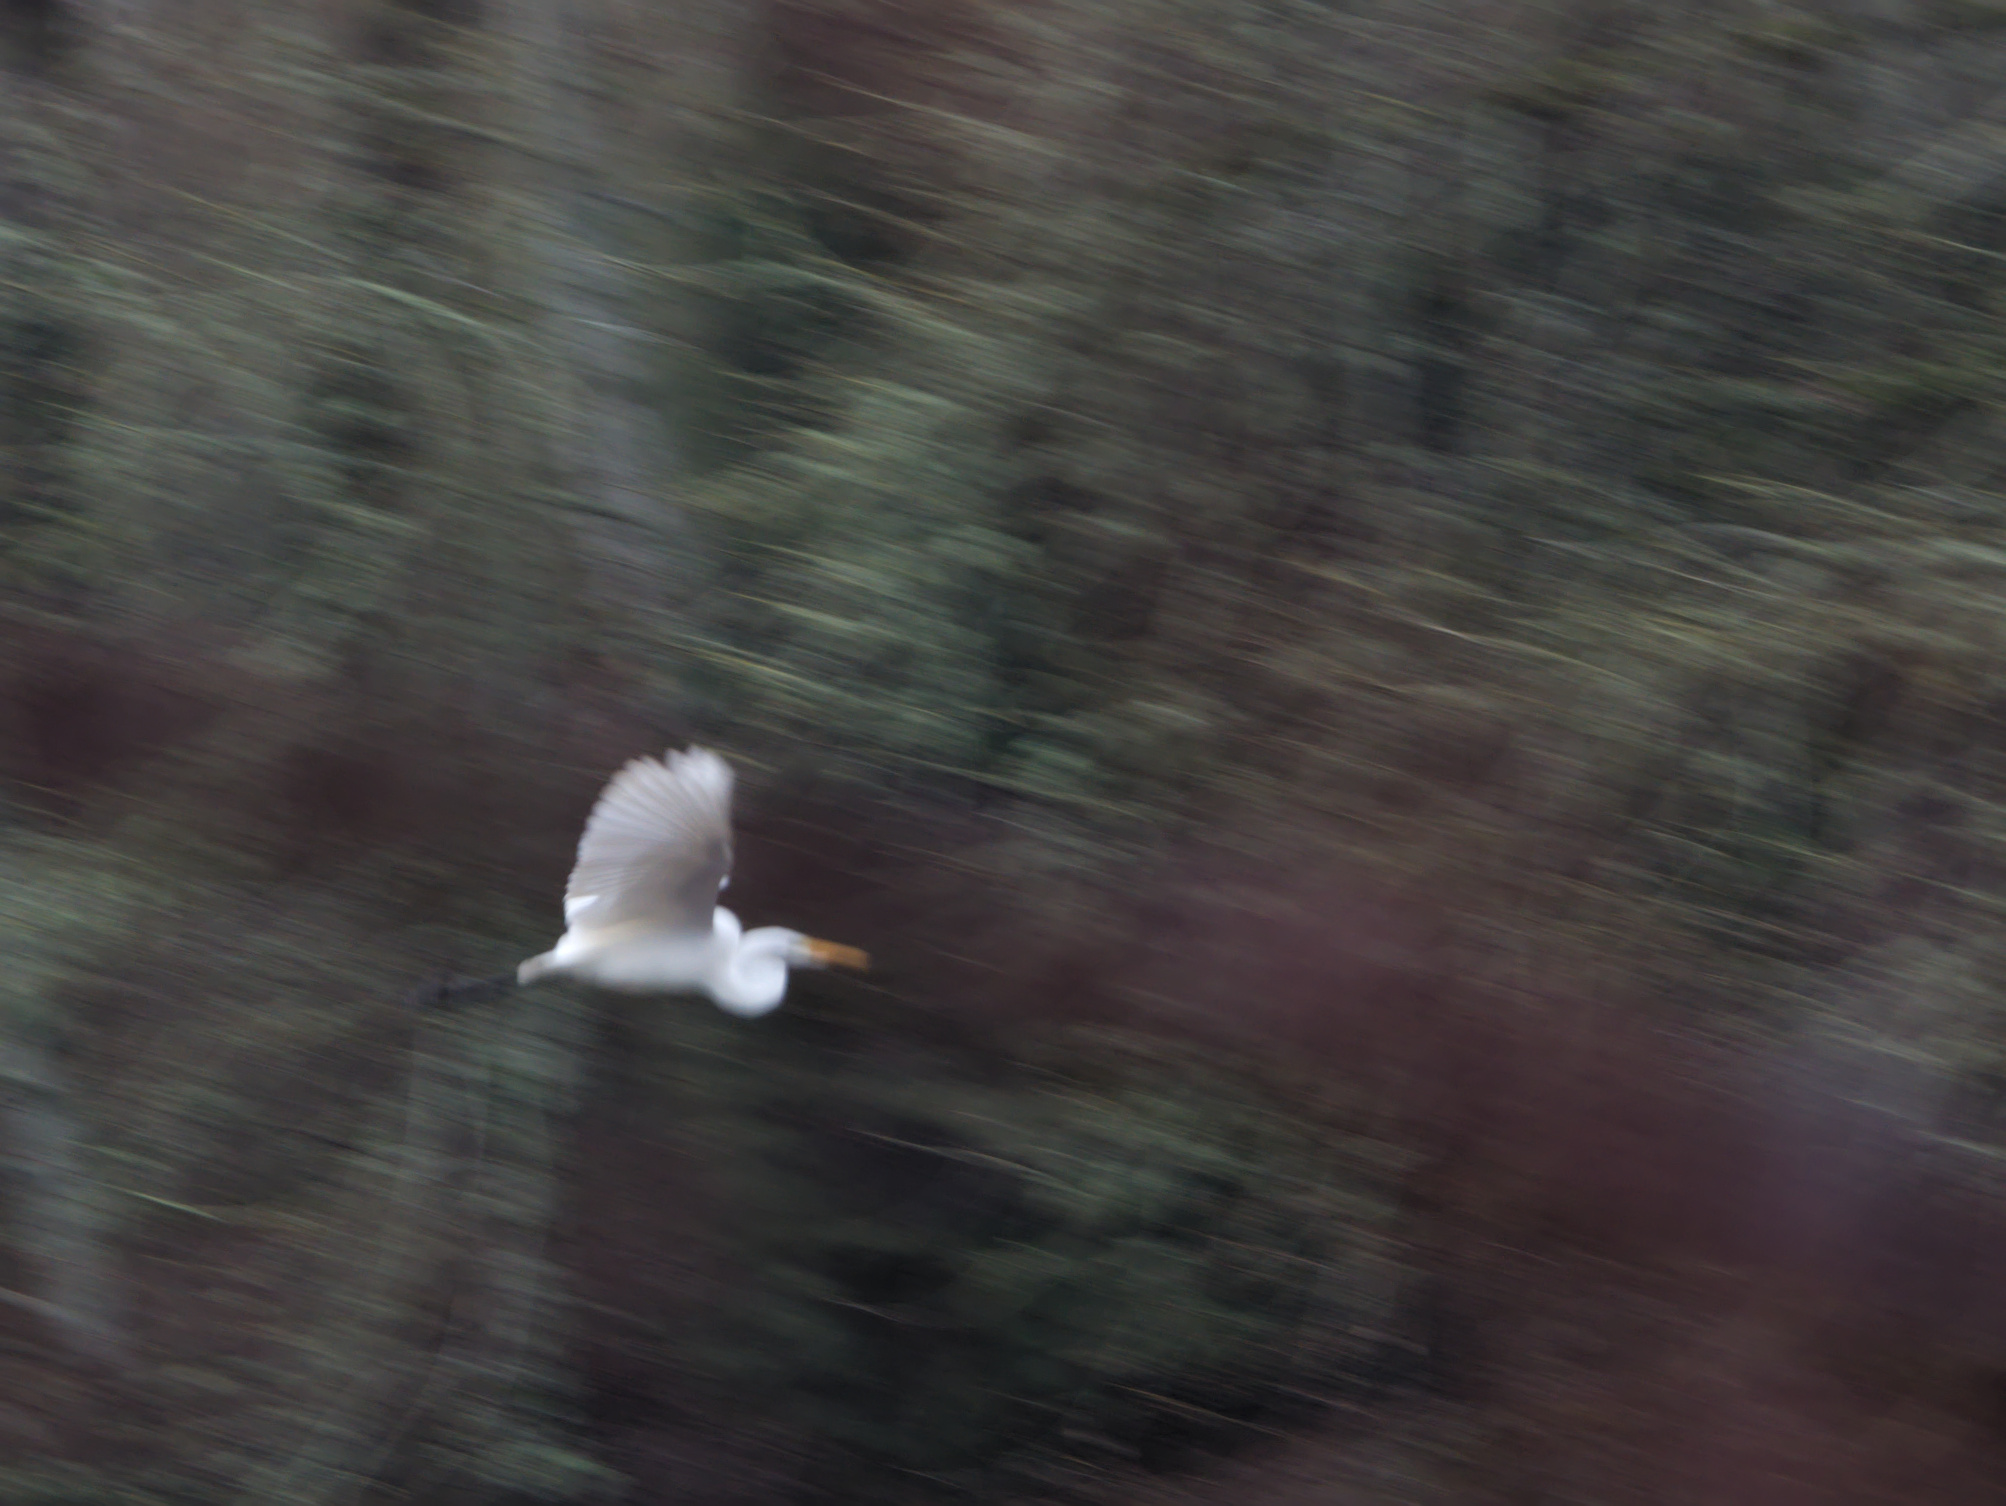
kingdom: Animalia
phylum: Chordata
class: Aves
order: Pelecaniformes
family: Ardeidae
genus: Ardea
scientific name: Ardea alba
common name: Great egret
